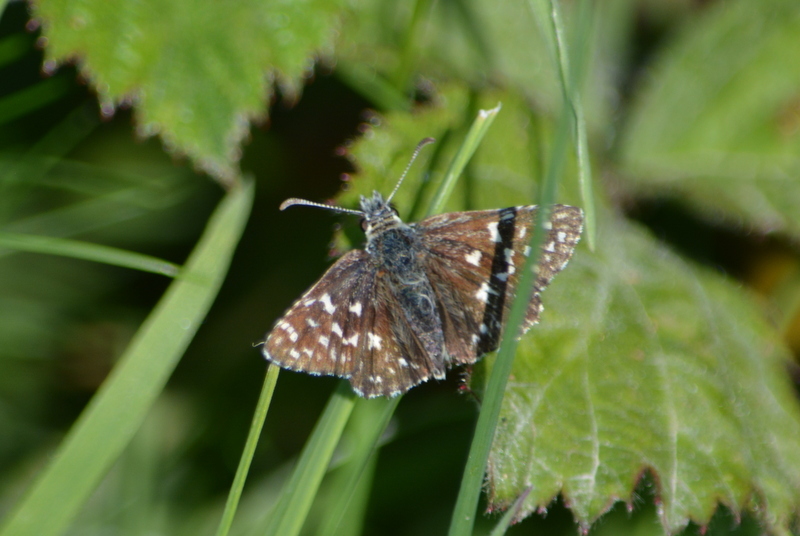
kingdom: Animalia
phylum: Arthropoda
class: Insecta
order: Lepidoptera
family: Hesperiidae
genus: Pyrgus
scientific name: Pyrgus malvae
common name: Grizzled skipper
